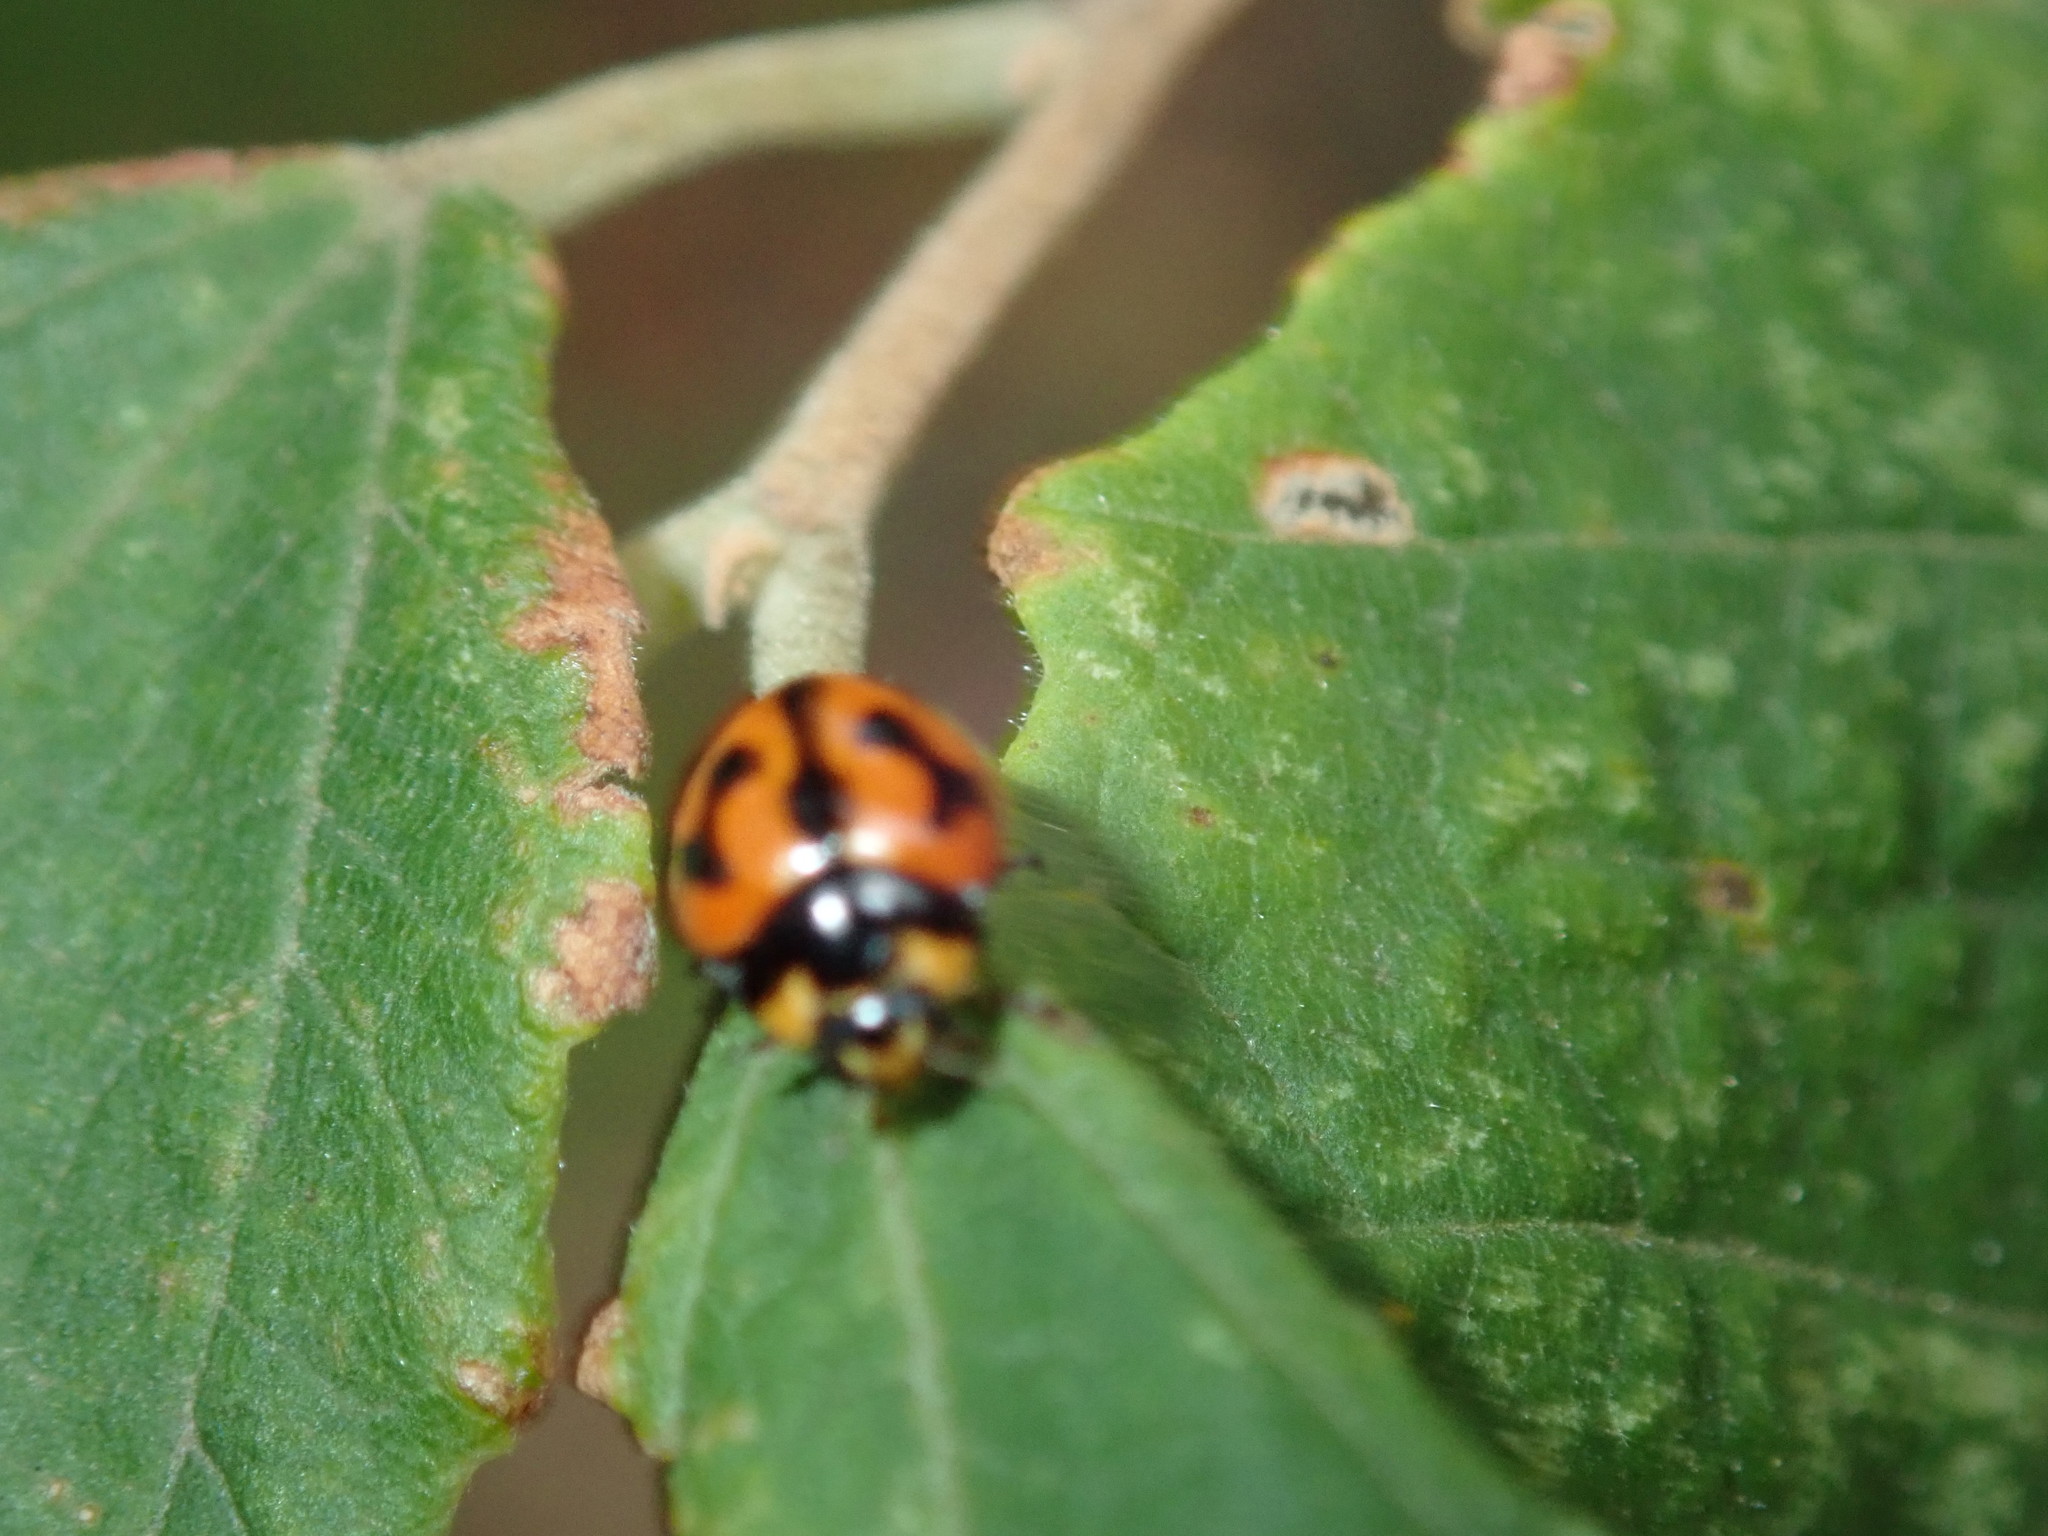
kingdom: Animalia
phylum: Arthropoda
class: Insecta
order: Coleoptera
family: Coccinellidae
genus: Coccinella
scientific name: Coccinella transversalis
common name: Transverse lady beetle
